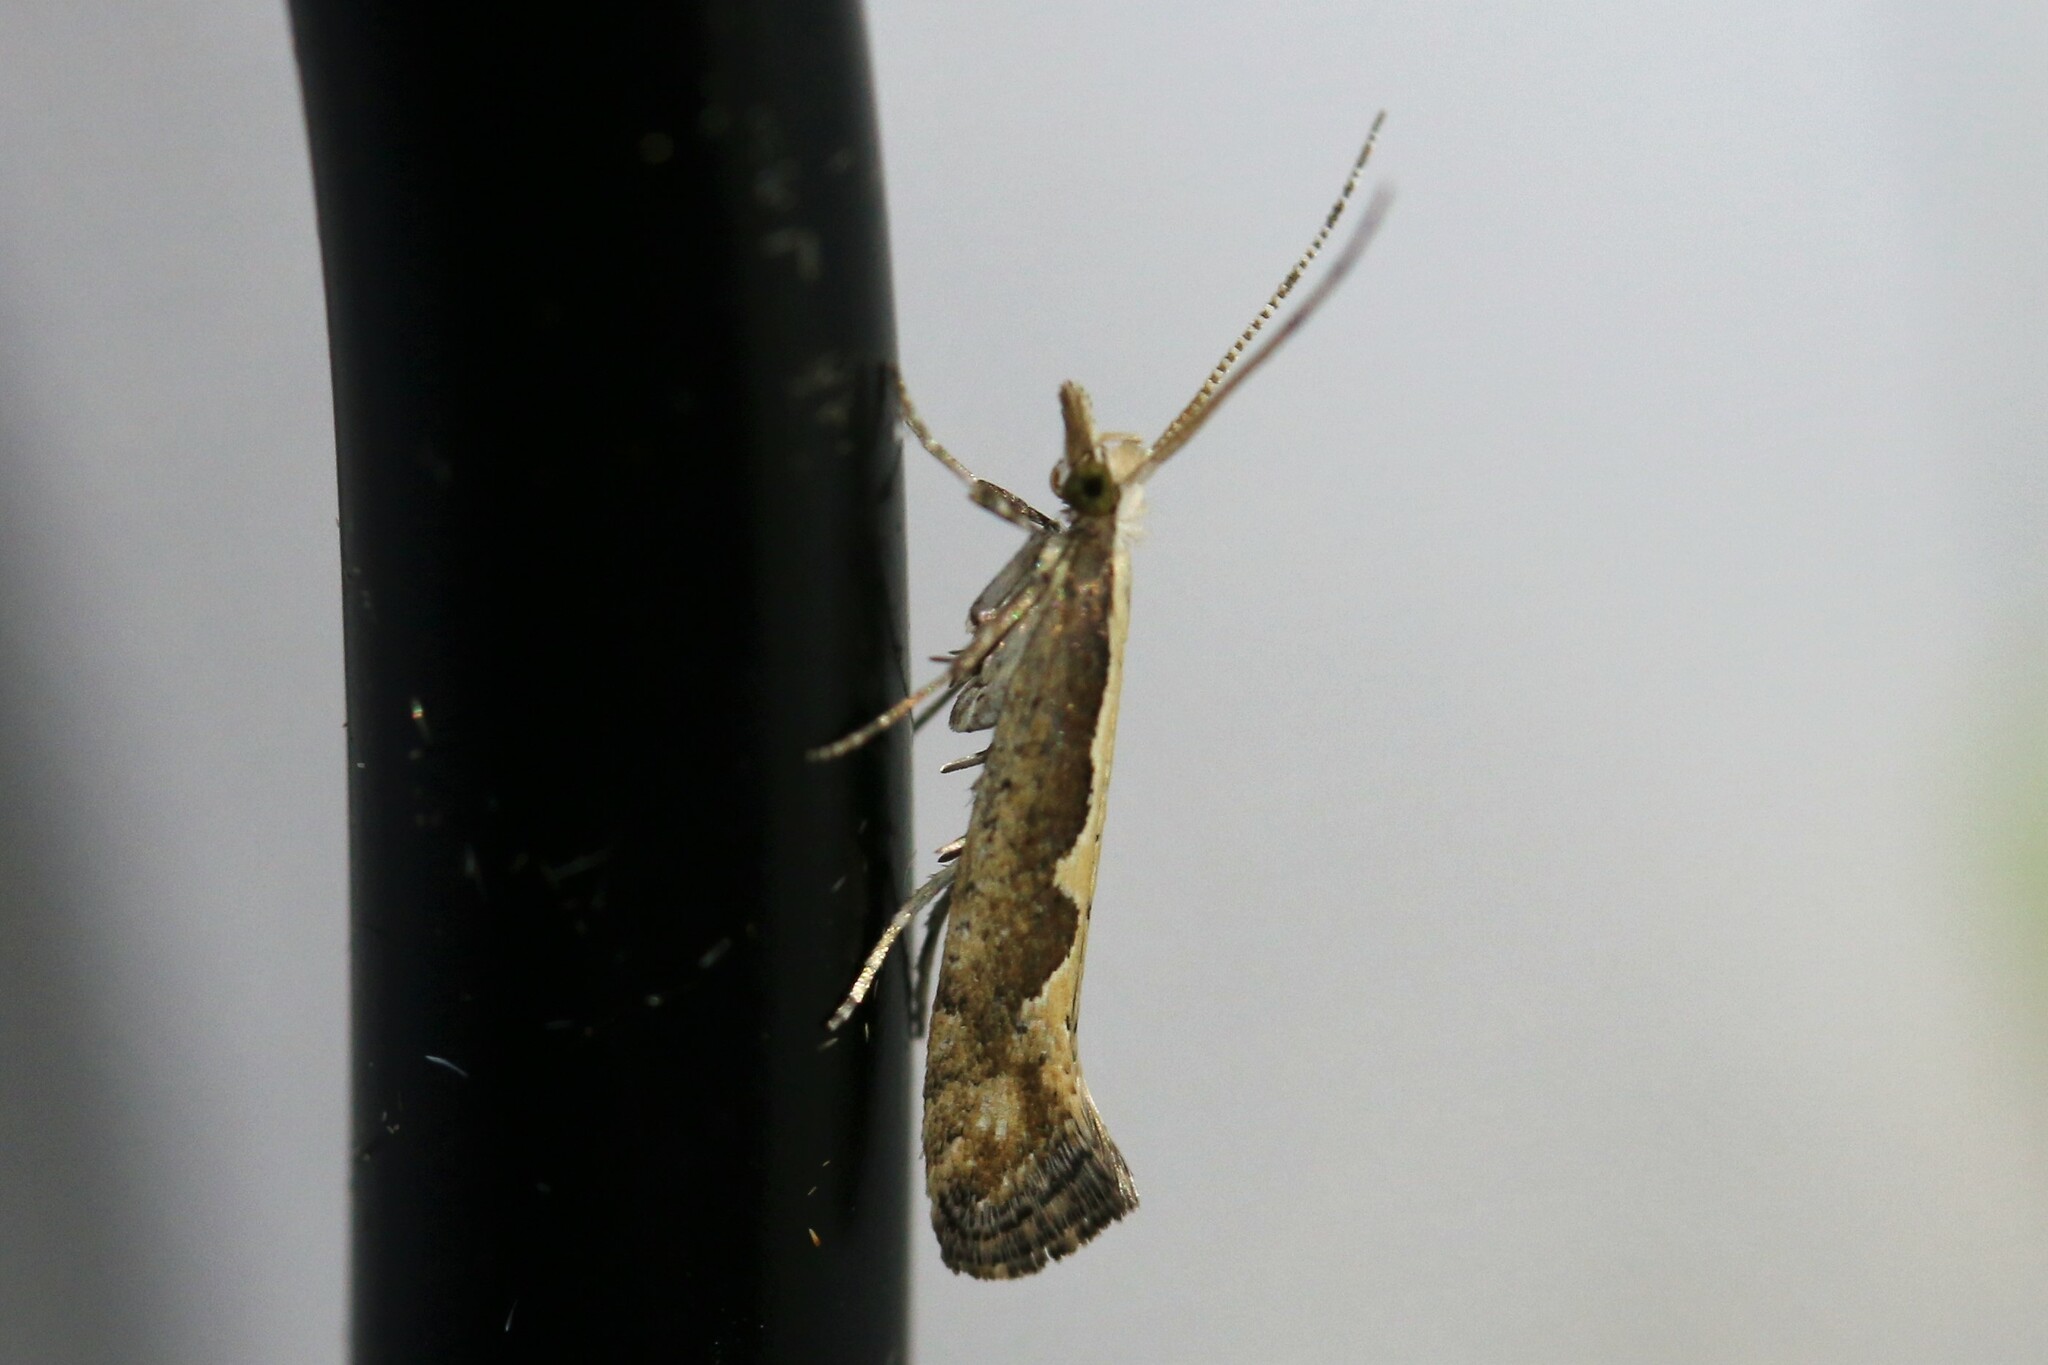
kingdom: Animalia
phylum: Arthropoda
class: Insecta
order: Lepidoptera
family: Plutellidae
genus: Plutella
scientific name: Plutella xylostella
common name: Diamond-back moth
